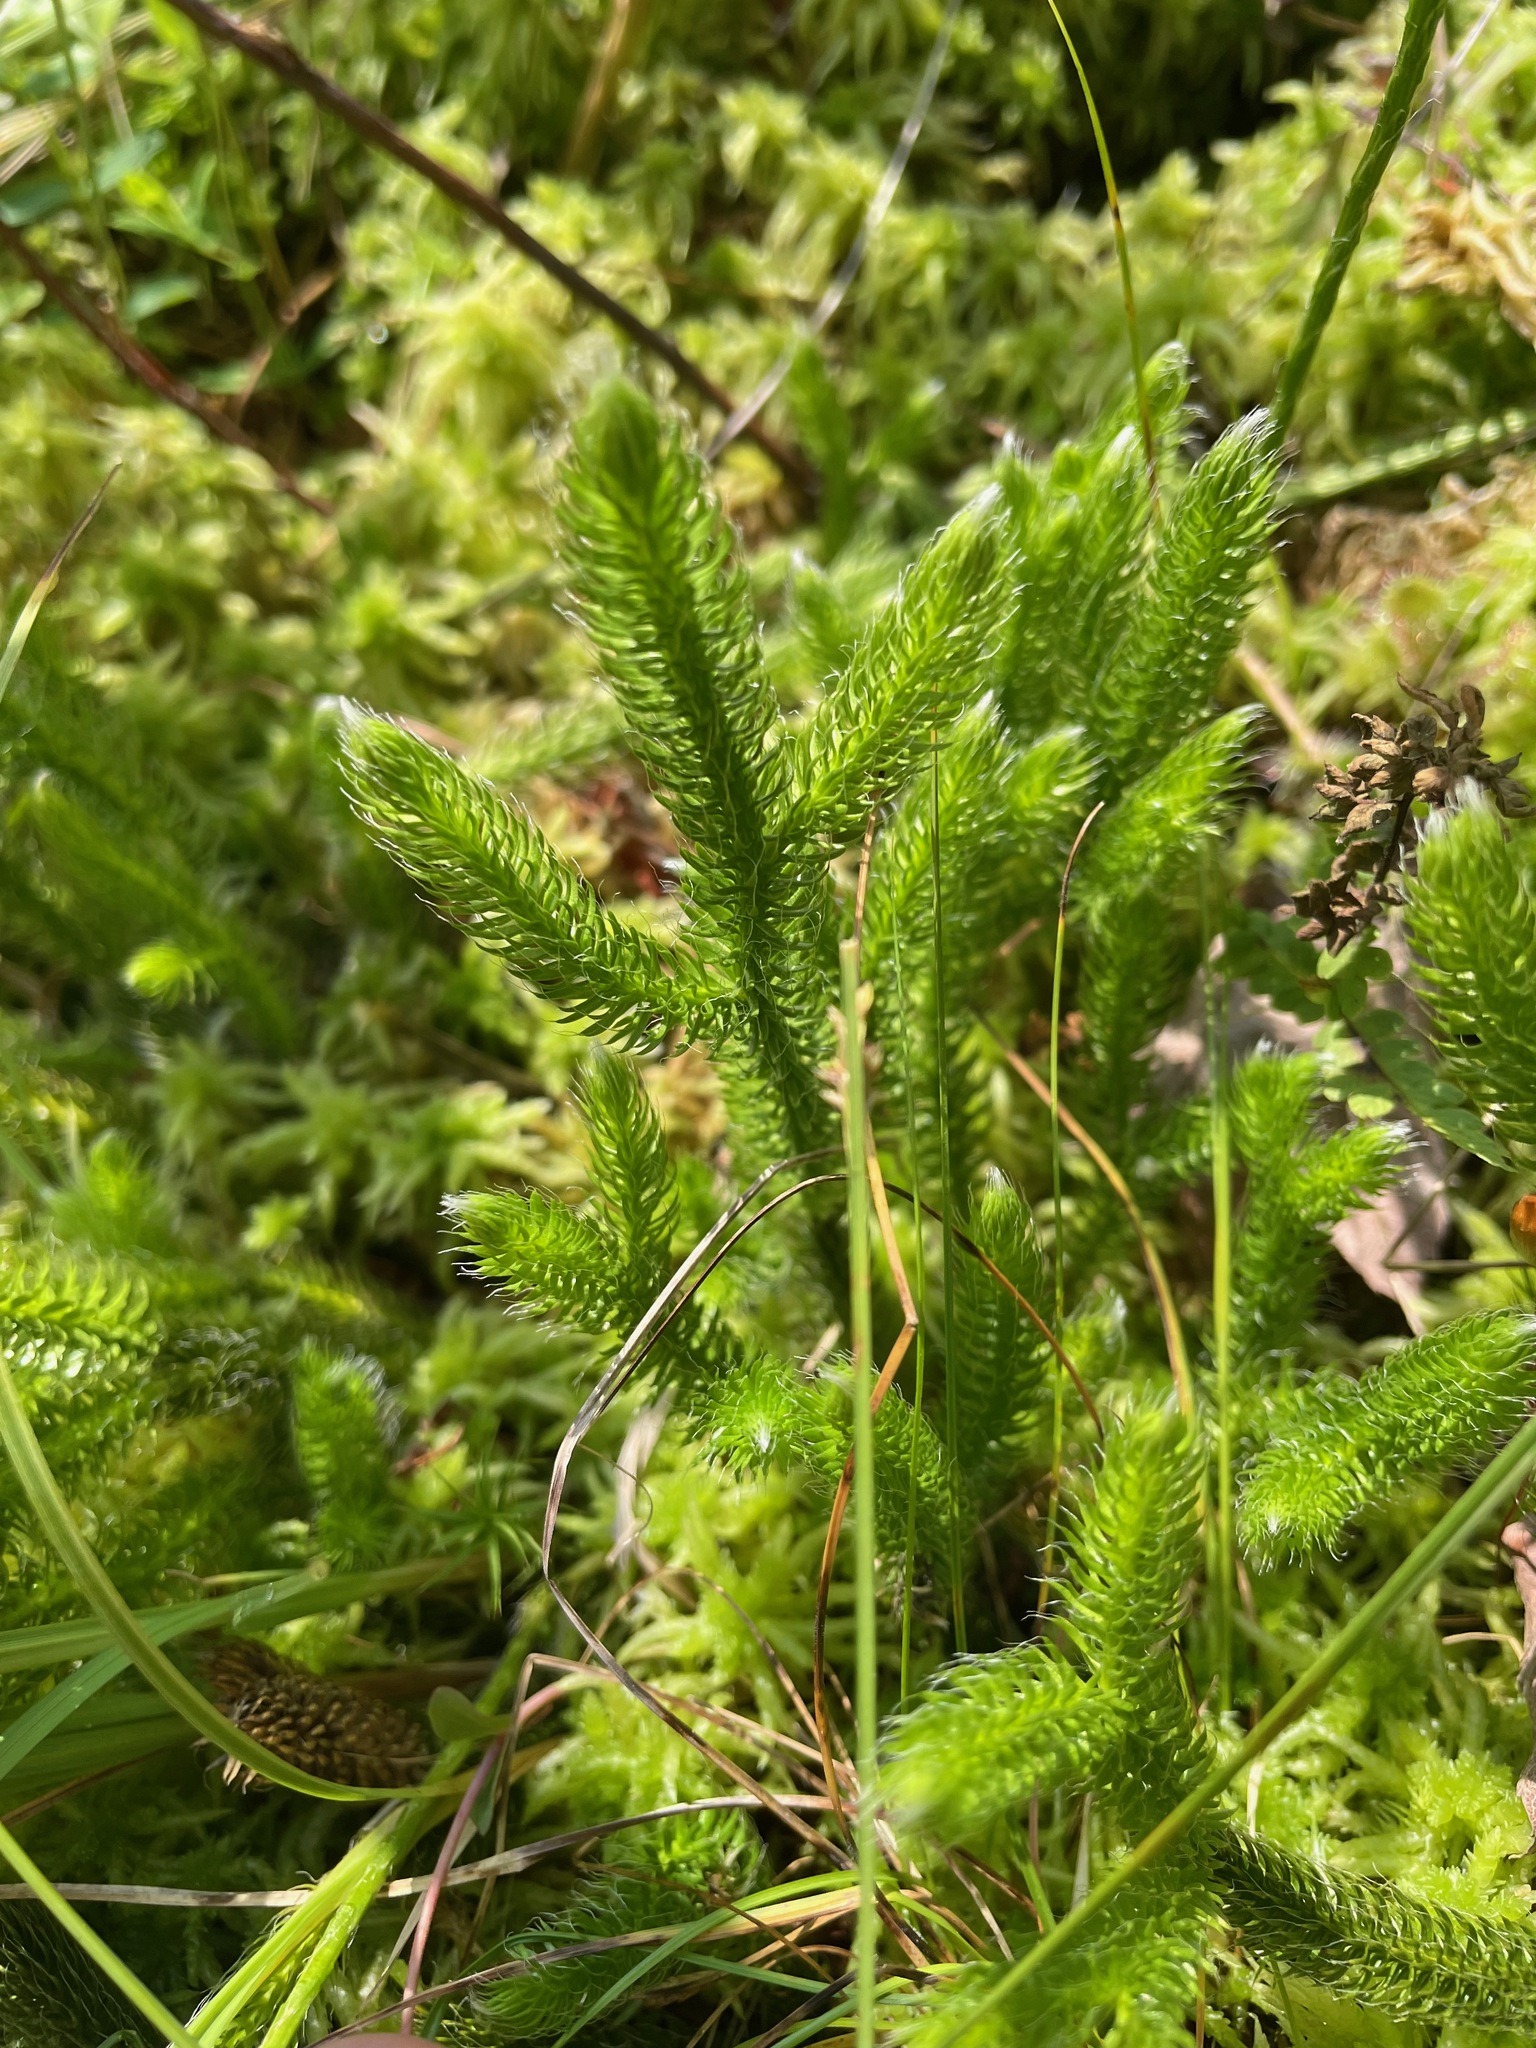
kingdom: Plantae
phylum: Tracheophyta
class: Lycopodiopsida
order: Lycopodiales
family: Lycopodiaceae
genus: Lycopodium
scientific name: Lycopodium clavatum
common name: Stag's-horn clubmoss
